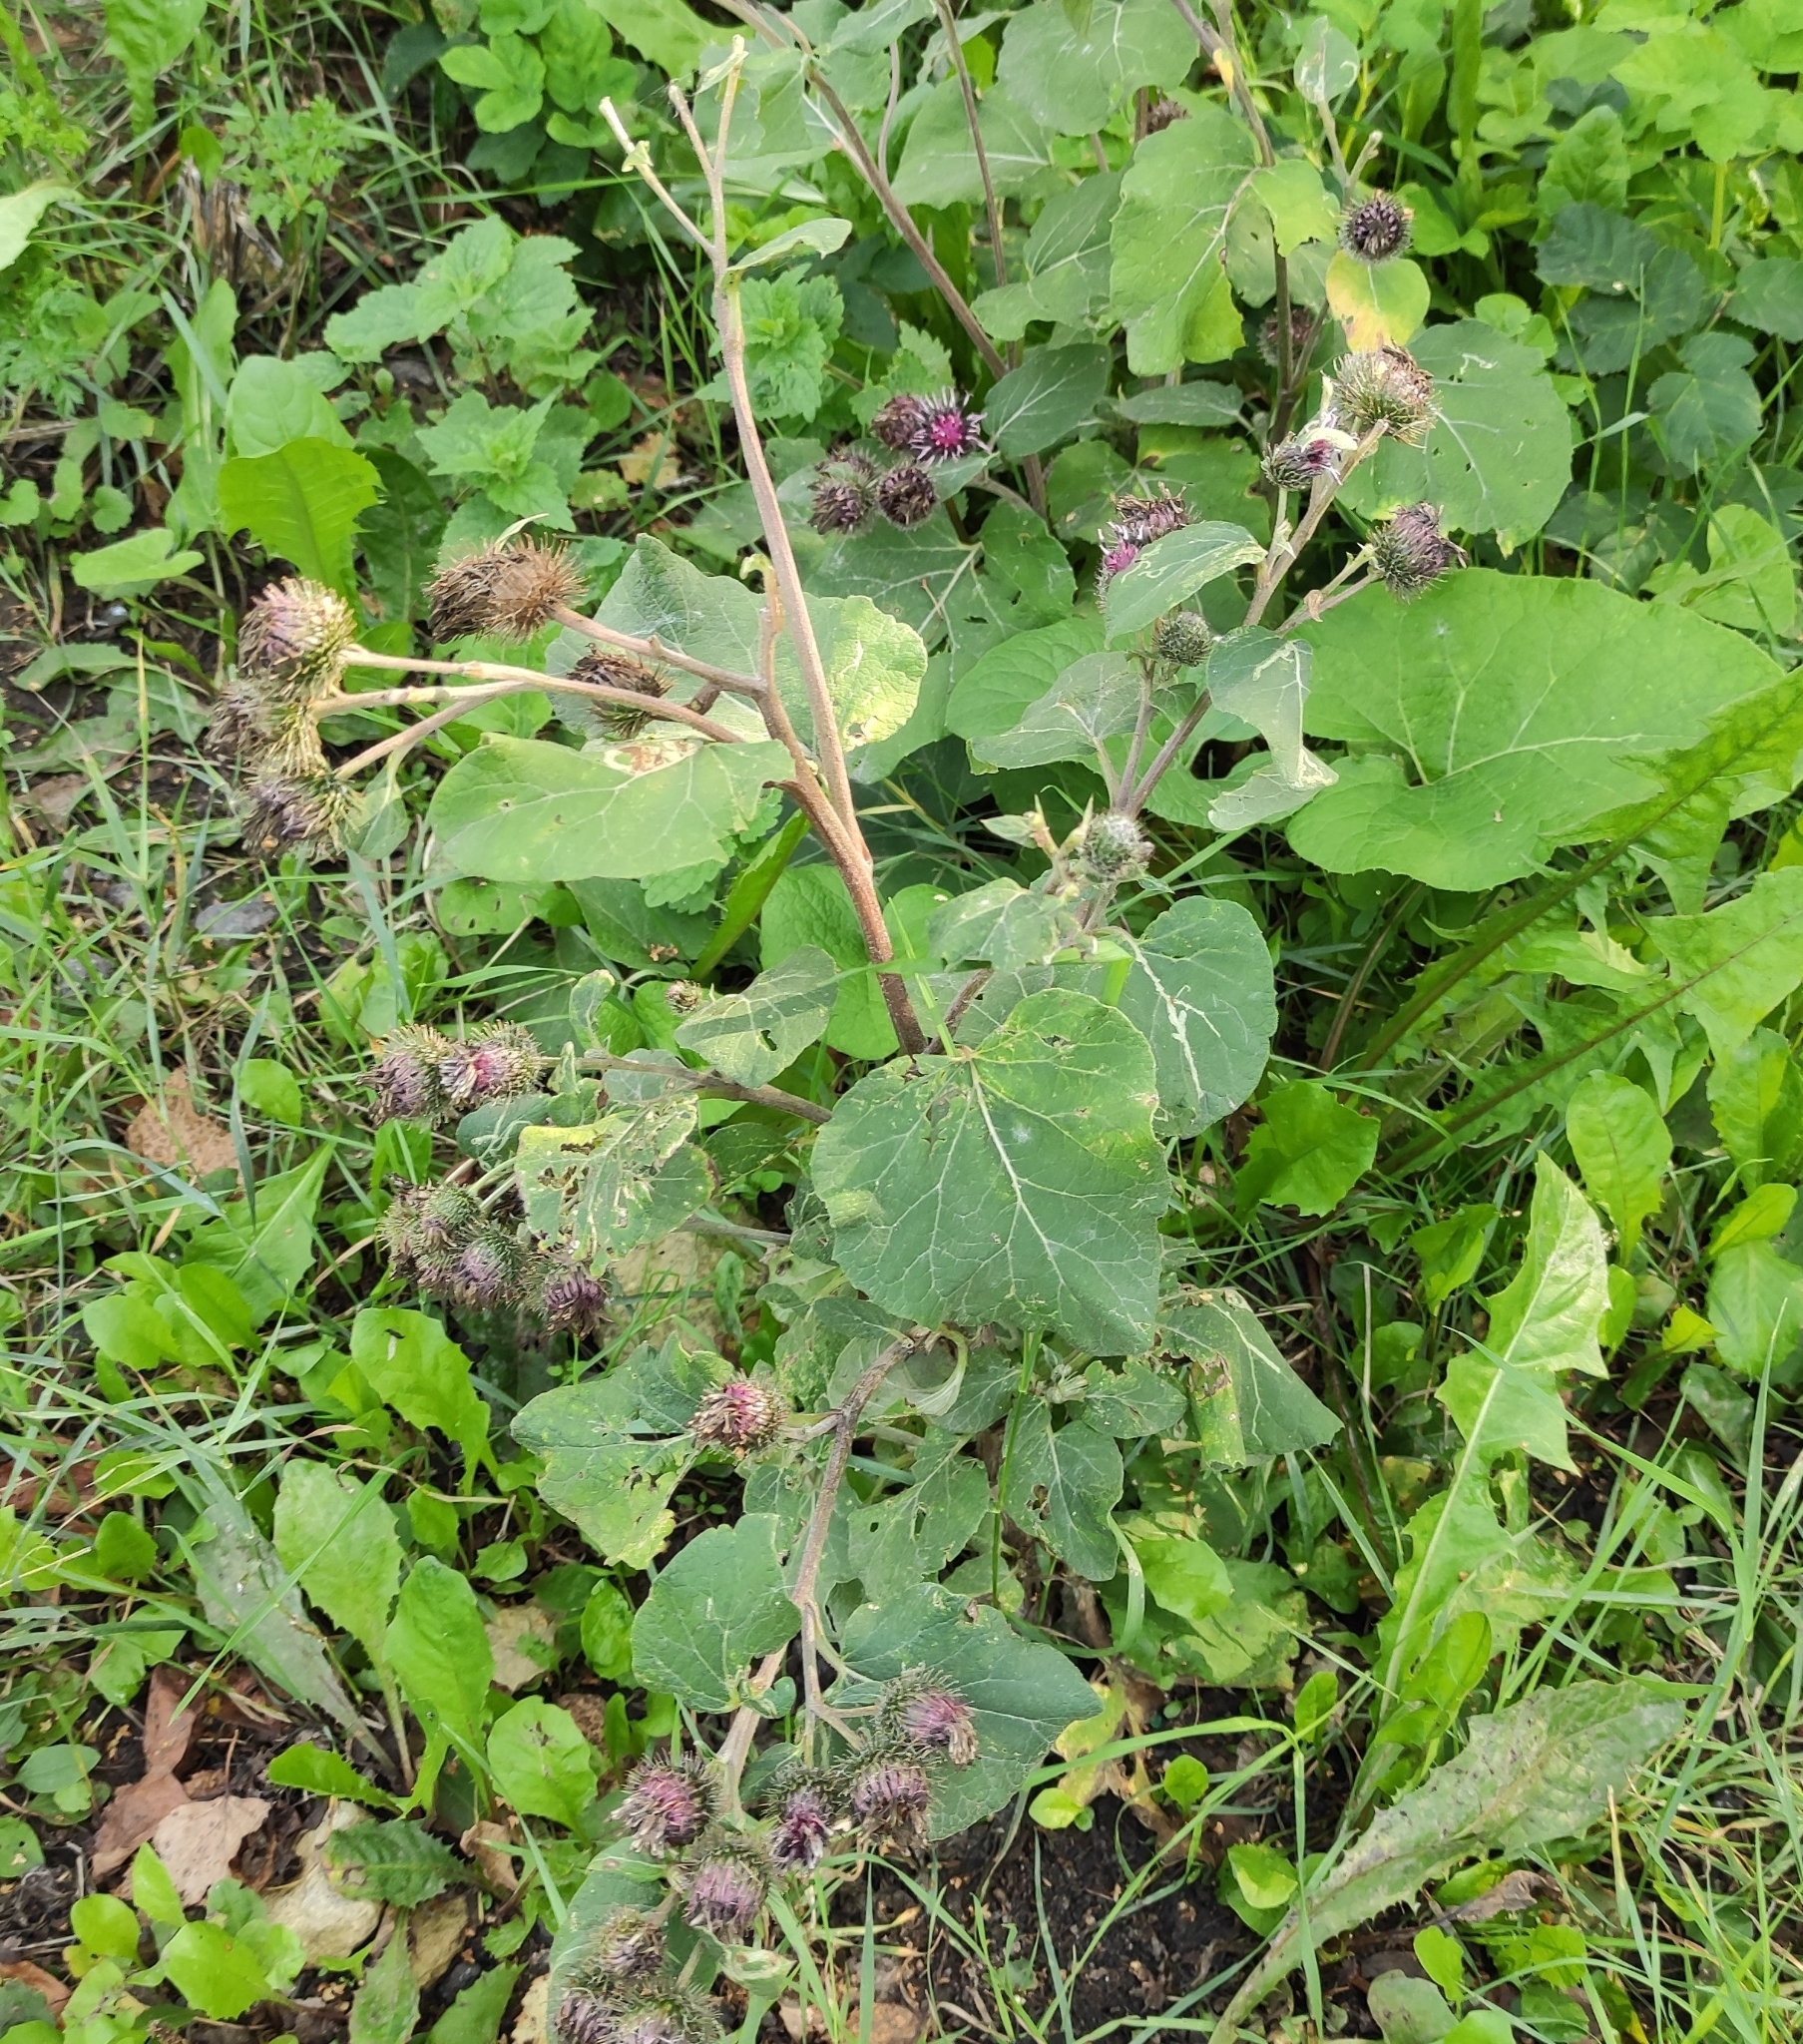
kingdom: Plantae
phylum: Tracheophyta
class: Magnoliopsida
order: Asterales
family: Asteraceae
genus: Arctium
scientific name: Arctium tomentosum
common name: Woolly burdock
